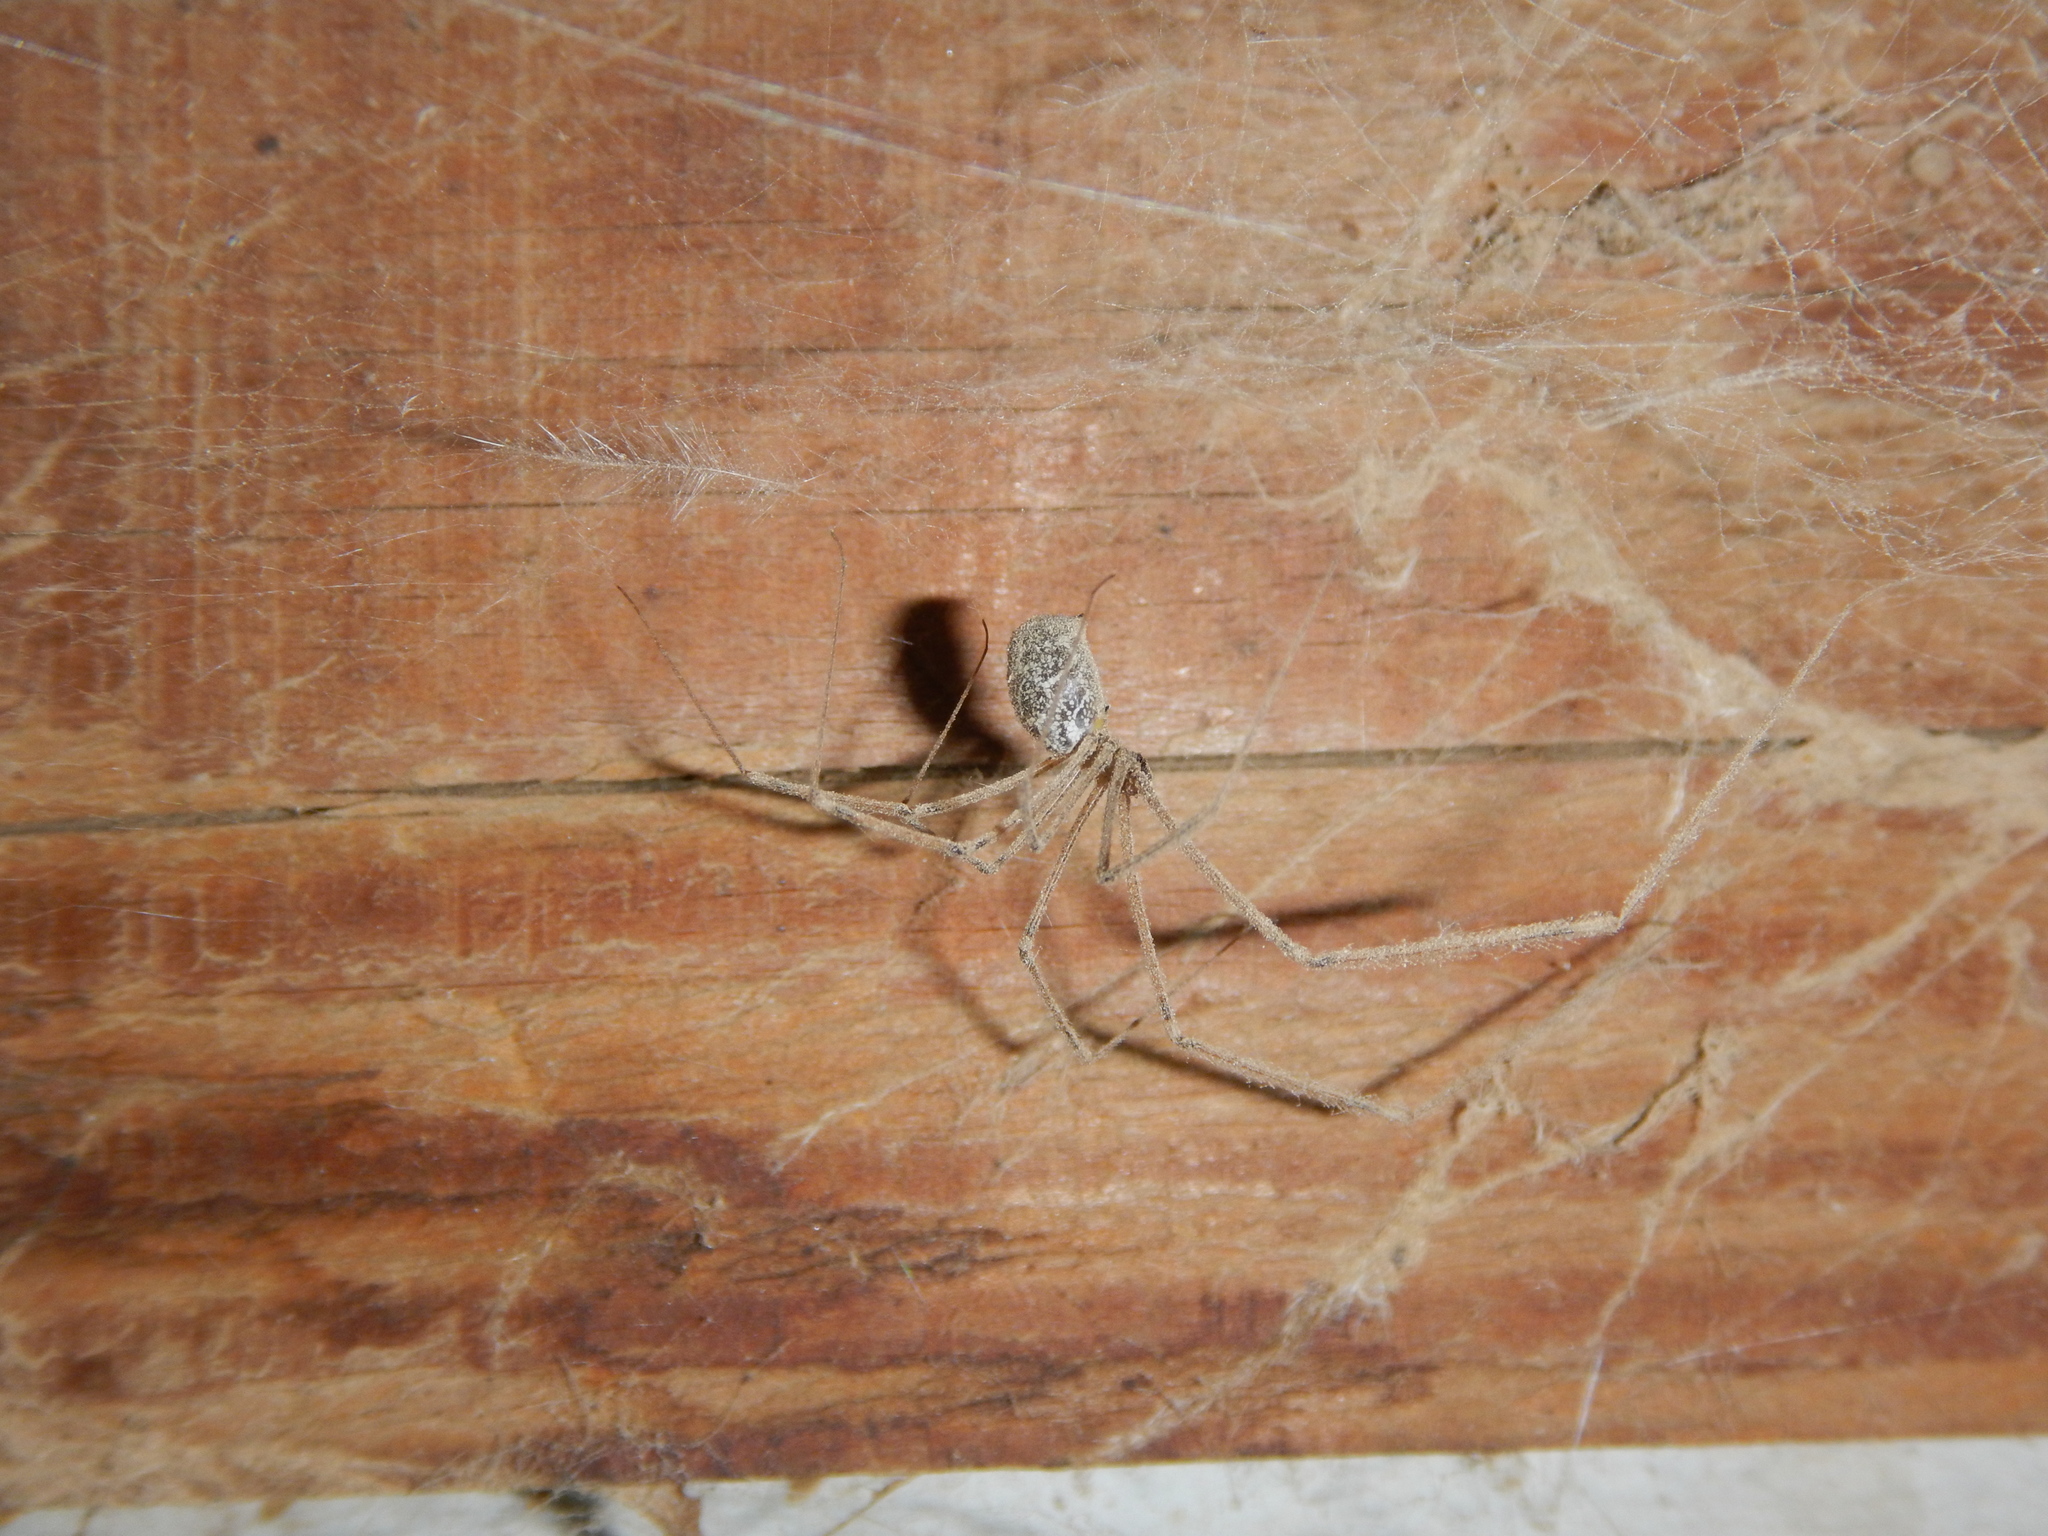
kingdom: Animalia
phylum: Arthropoda
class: Arachnida
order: Araneae
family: Pholcidae
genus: Holocnemus
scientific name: Holocnemus pluchei
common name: Marbled cellar spider
